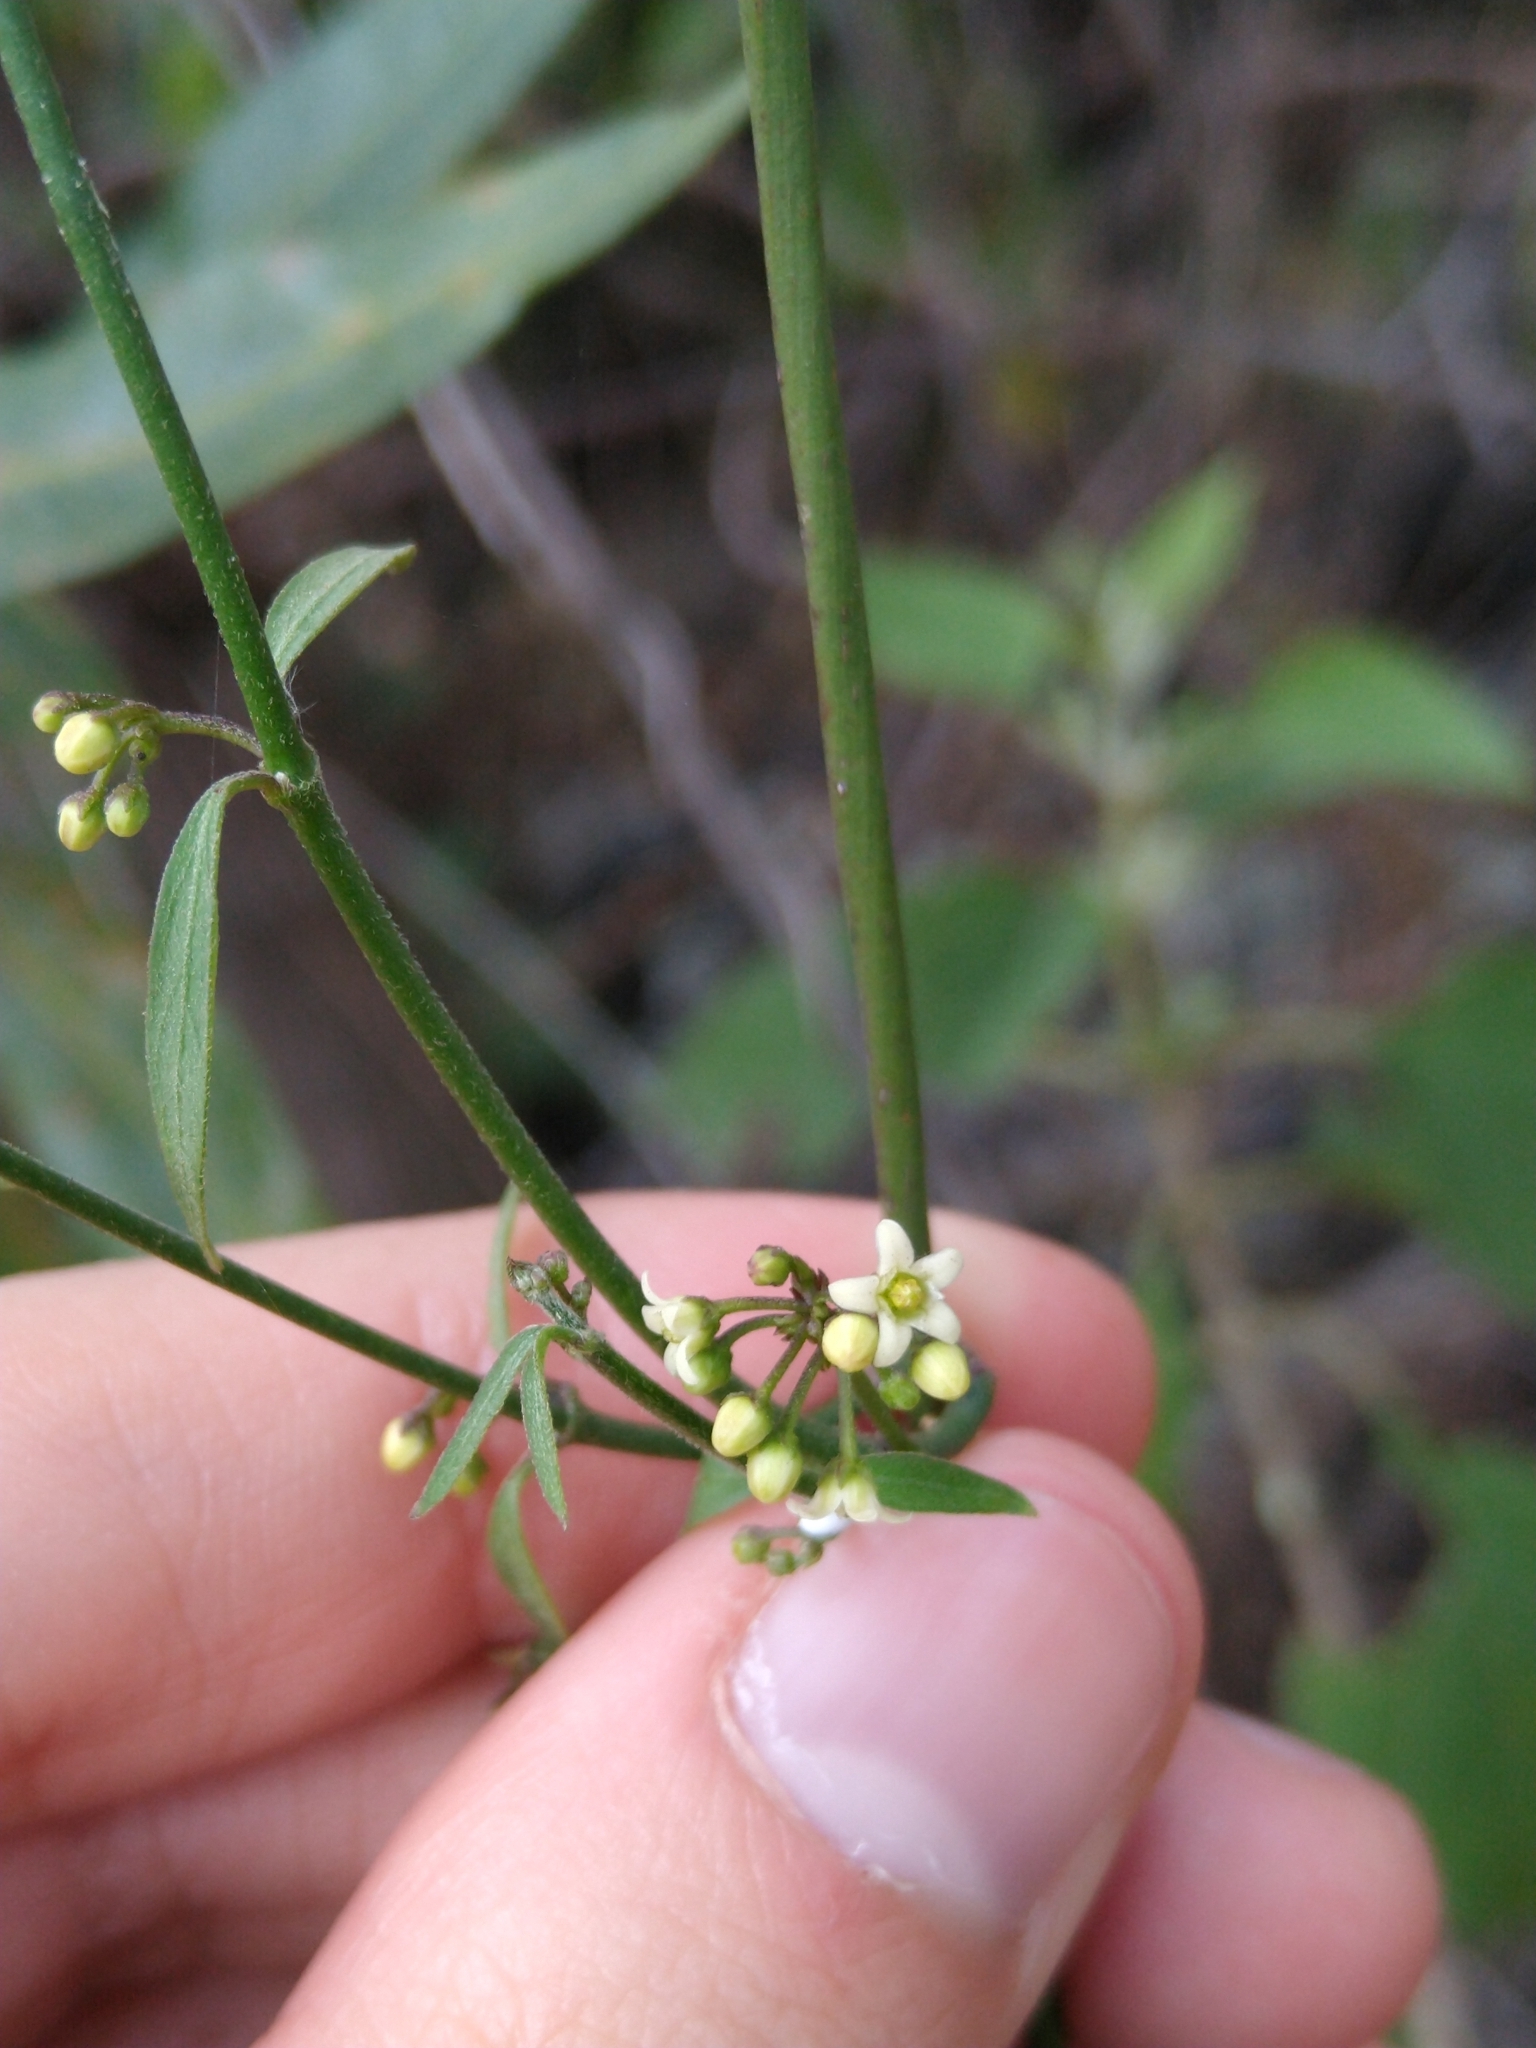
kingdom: Plantae
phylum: Tracheophyta
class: Magnoliopsida
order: Gentianales
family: Apocynaceae
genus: Orthosia
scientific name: Orthosia angustifolia
